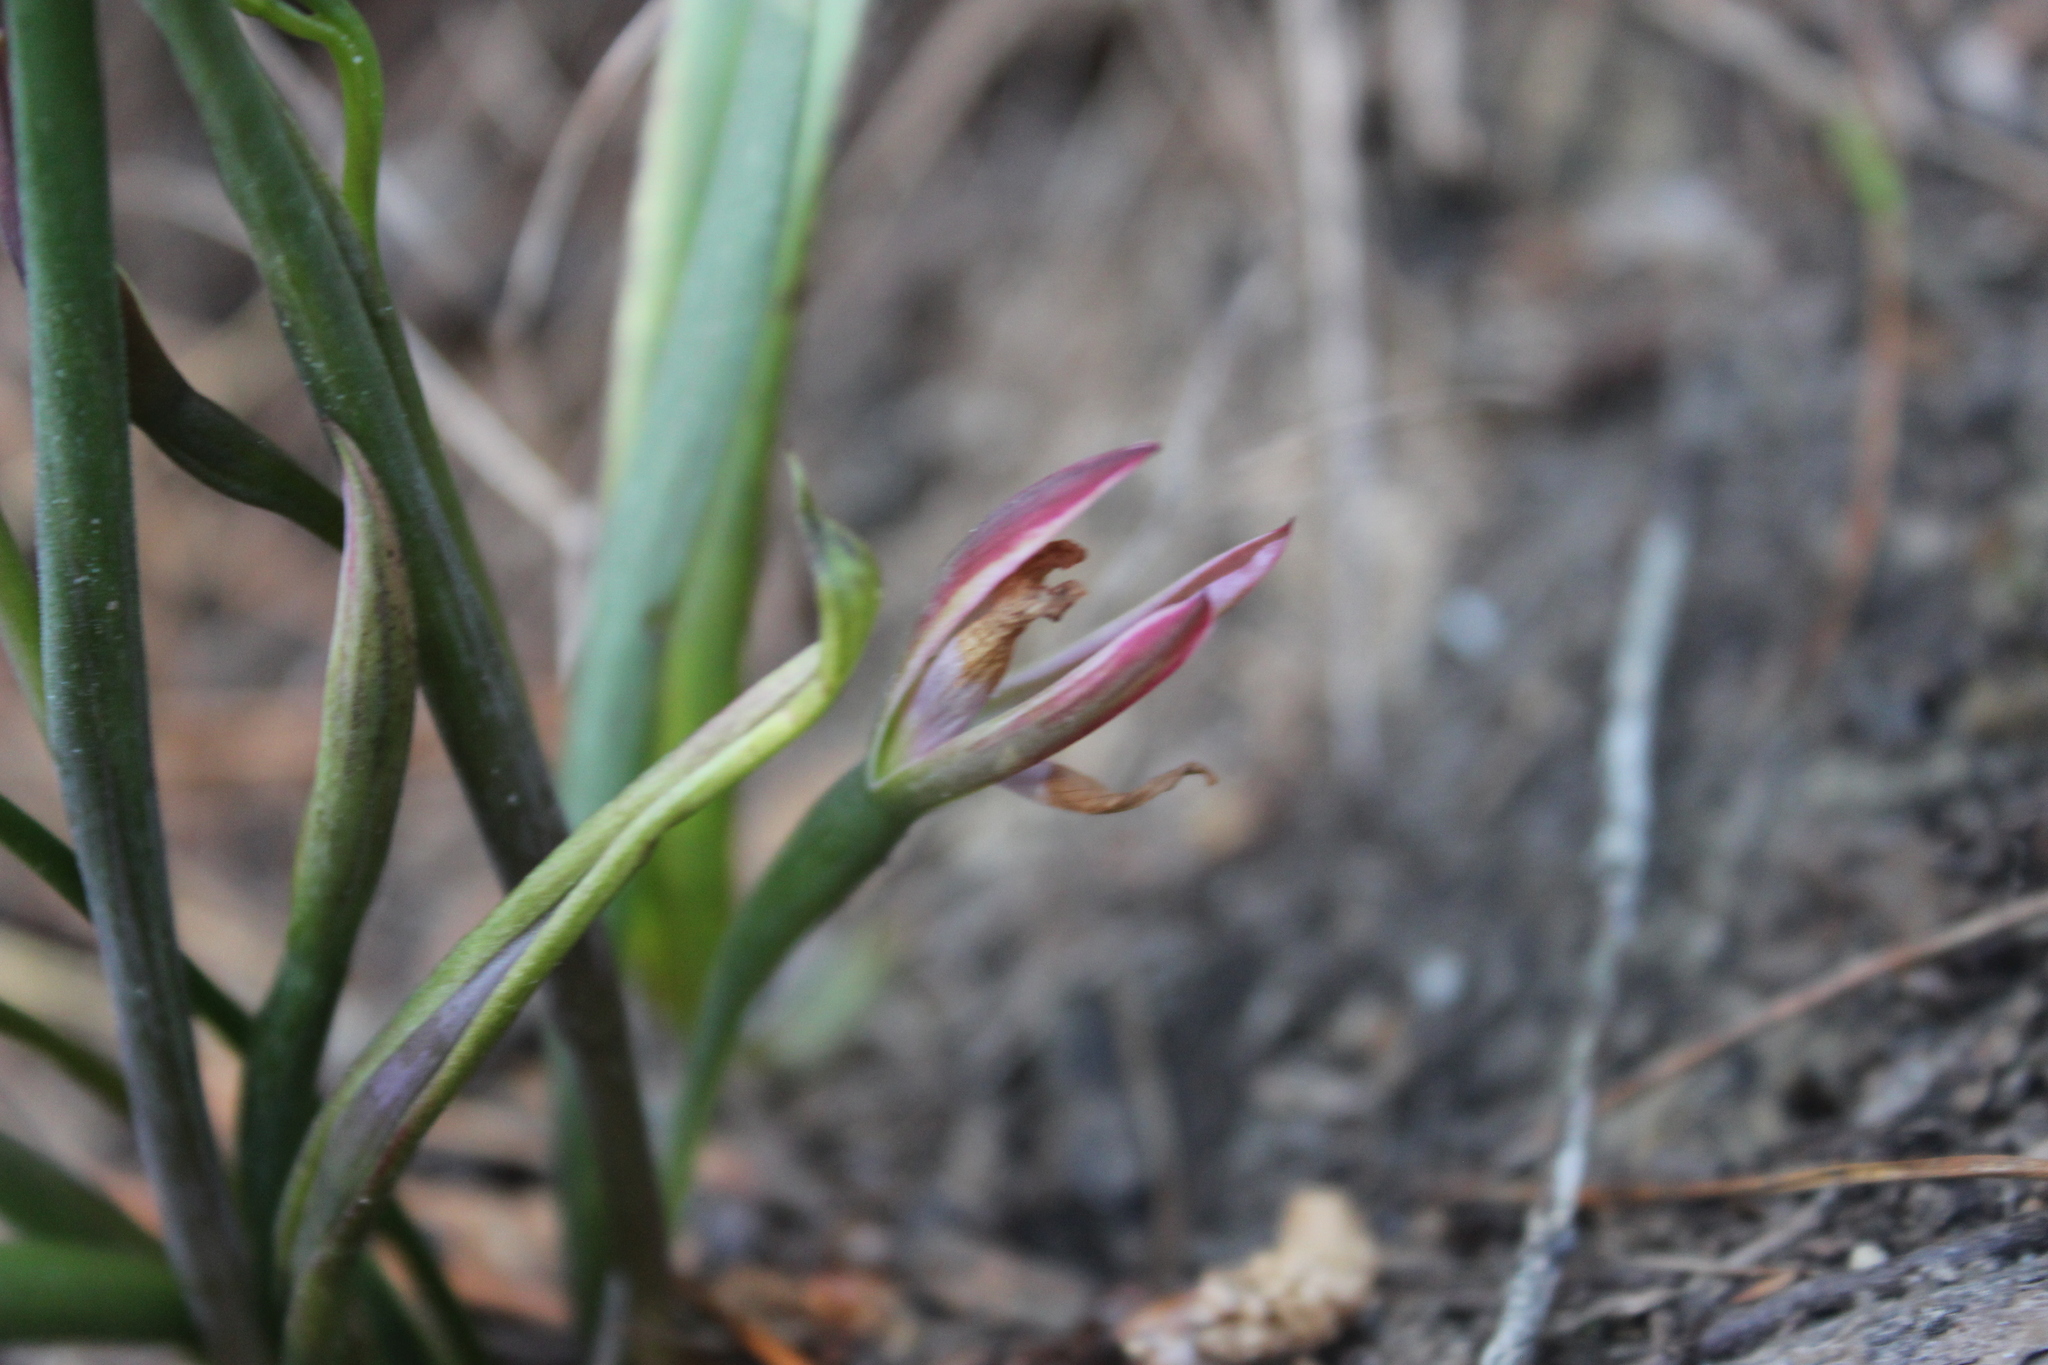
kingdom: Plantae
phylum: Tracheophyta
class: Liliopsida
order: Asparagales
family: Orchidaceae
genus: Thelymitra
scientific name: Thelymitra nervosa
